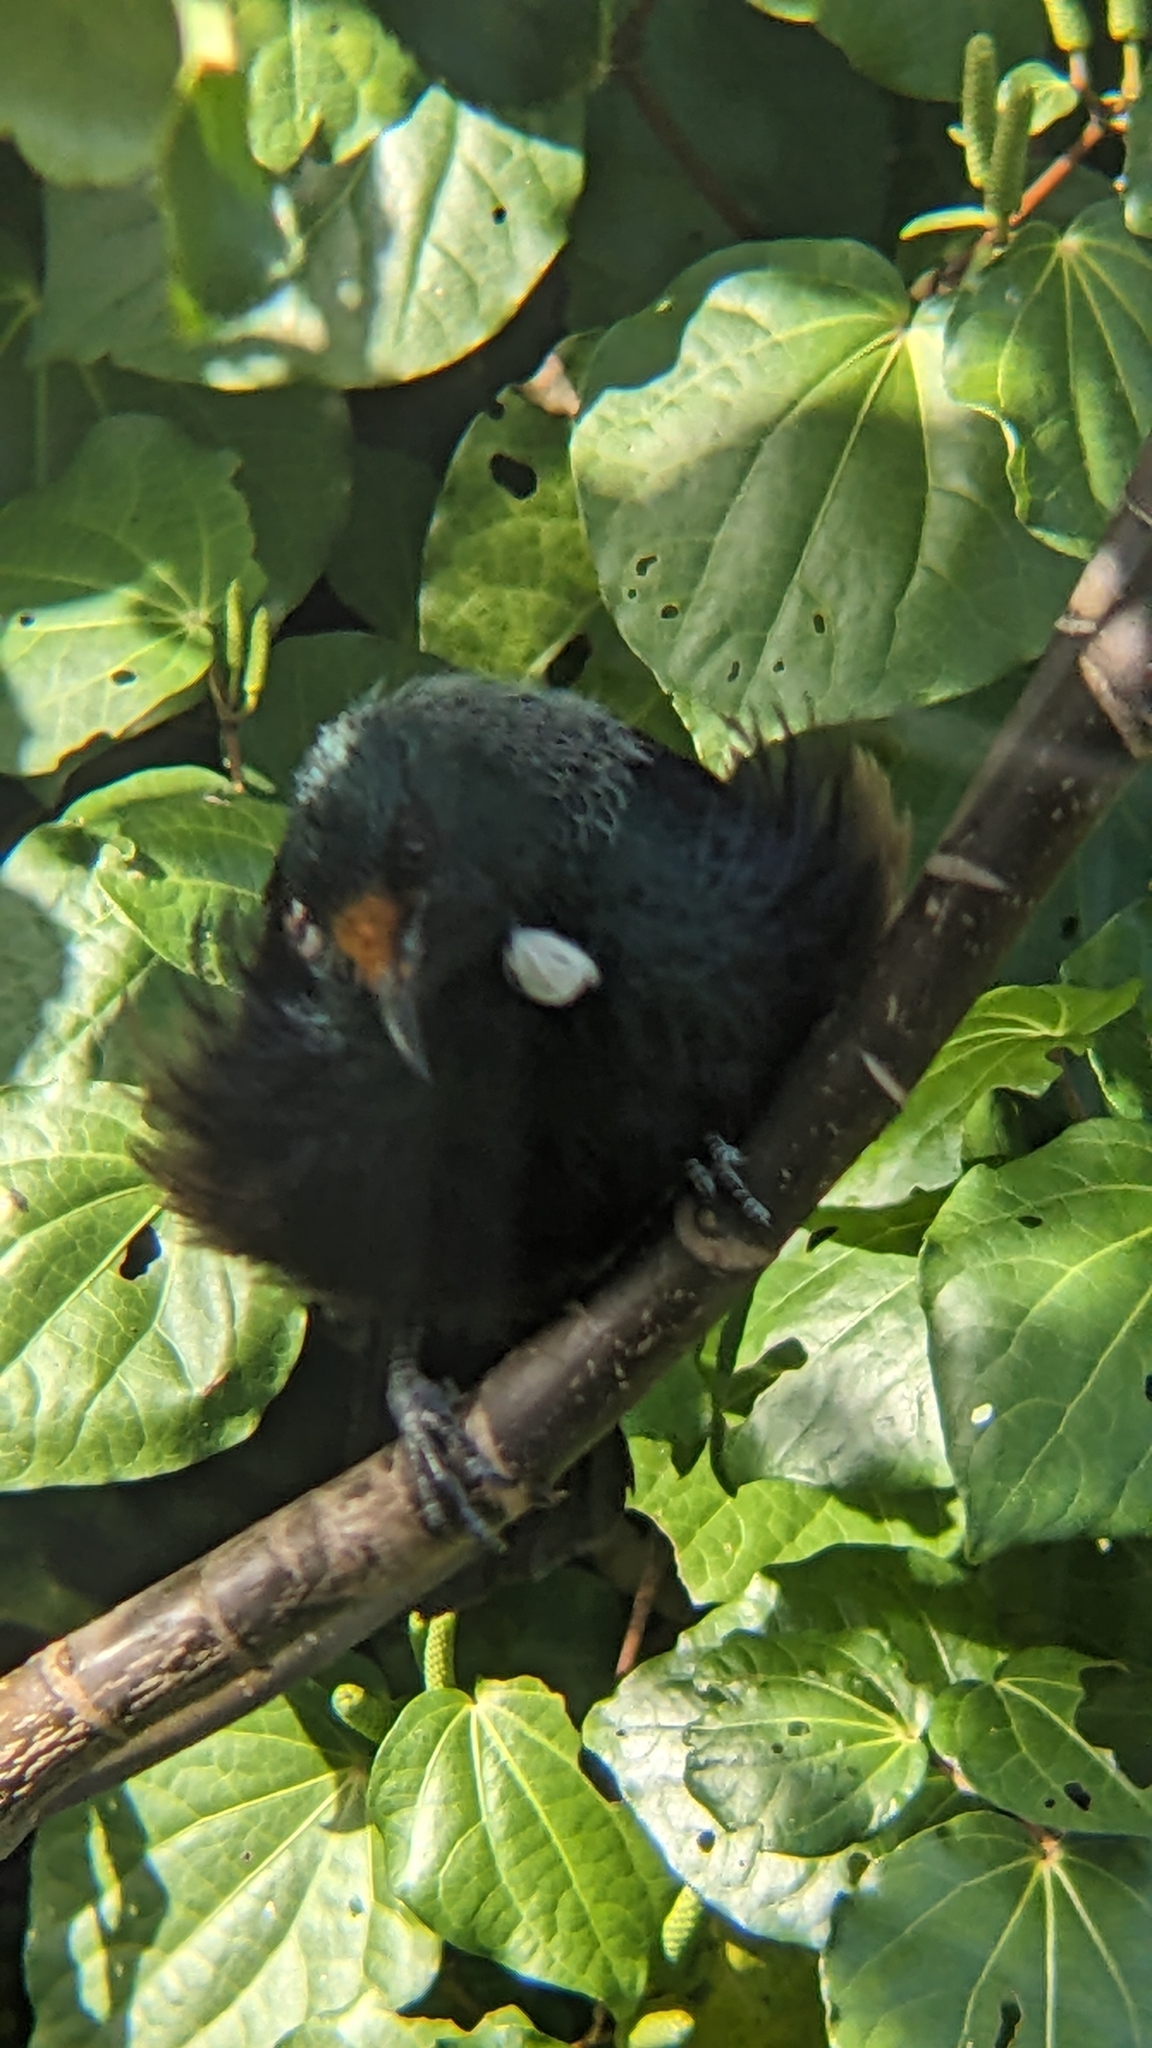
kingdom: Animalia
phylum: Chordata
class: Aves
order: Passeriformes
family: Meliphagidae
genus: Prosthemadera
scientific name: Prosthemadera novaeseelandiae
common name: Tui
